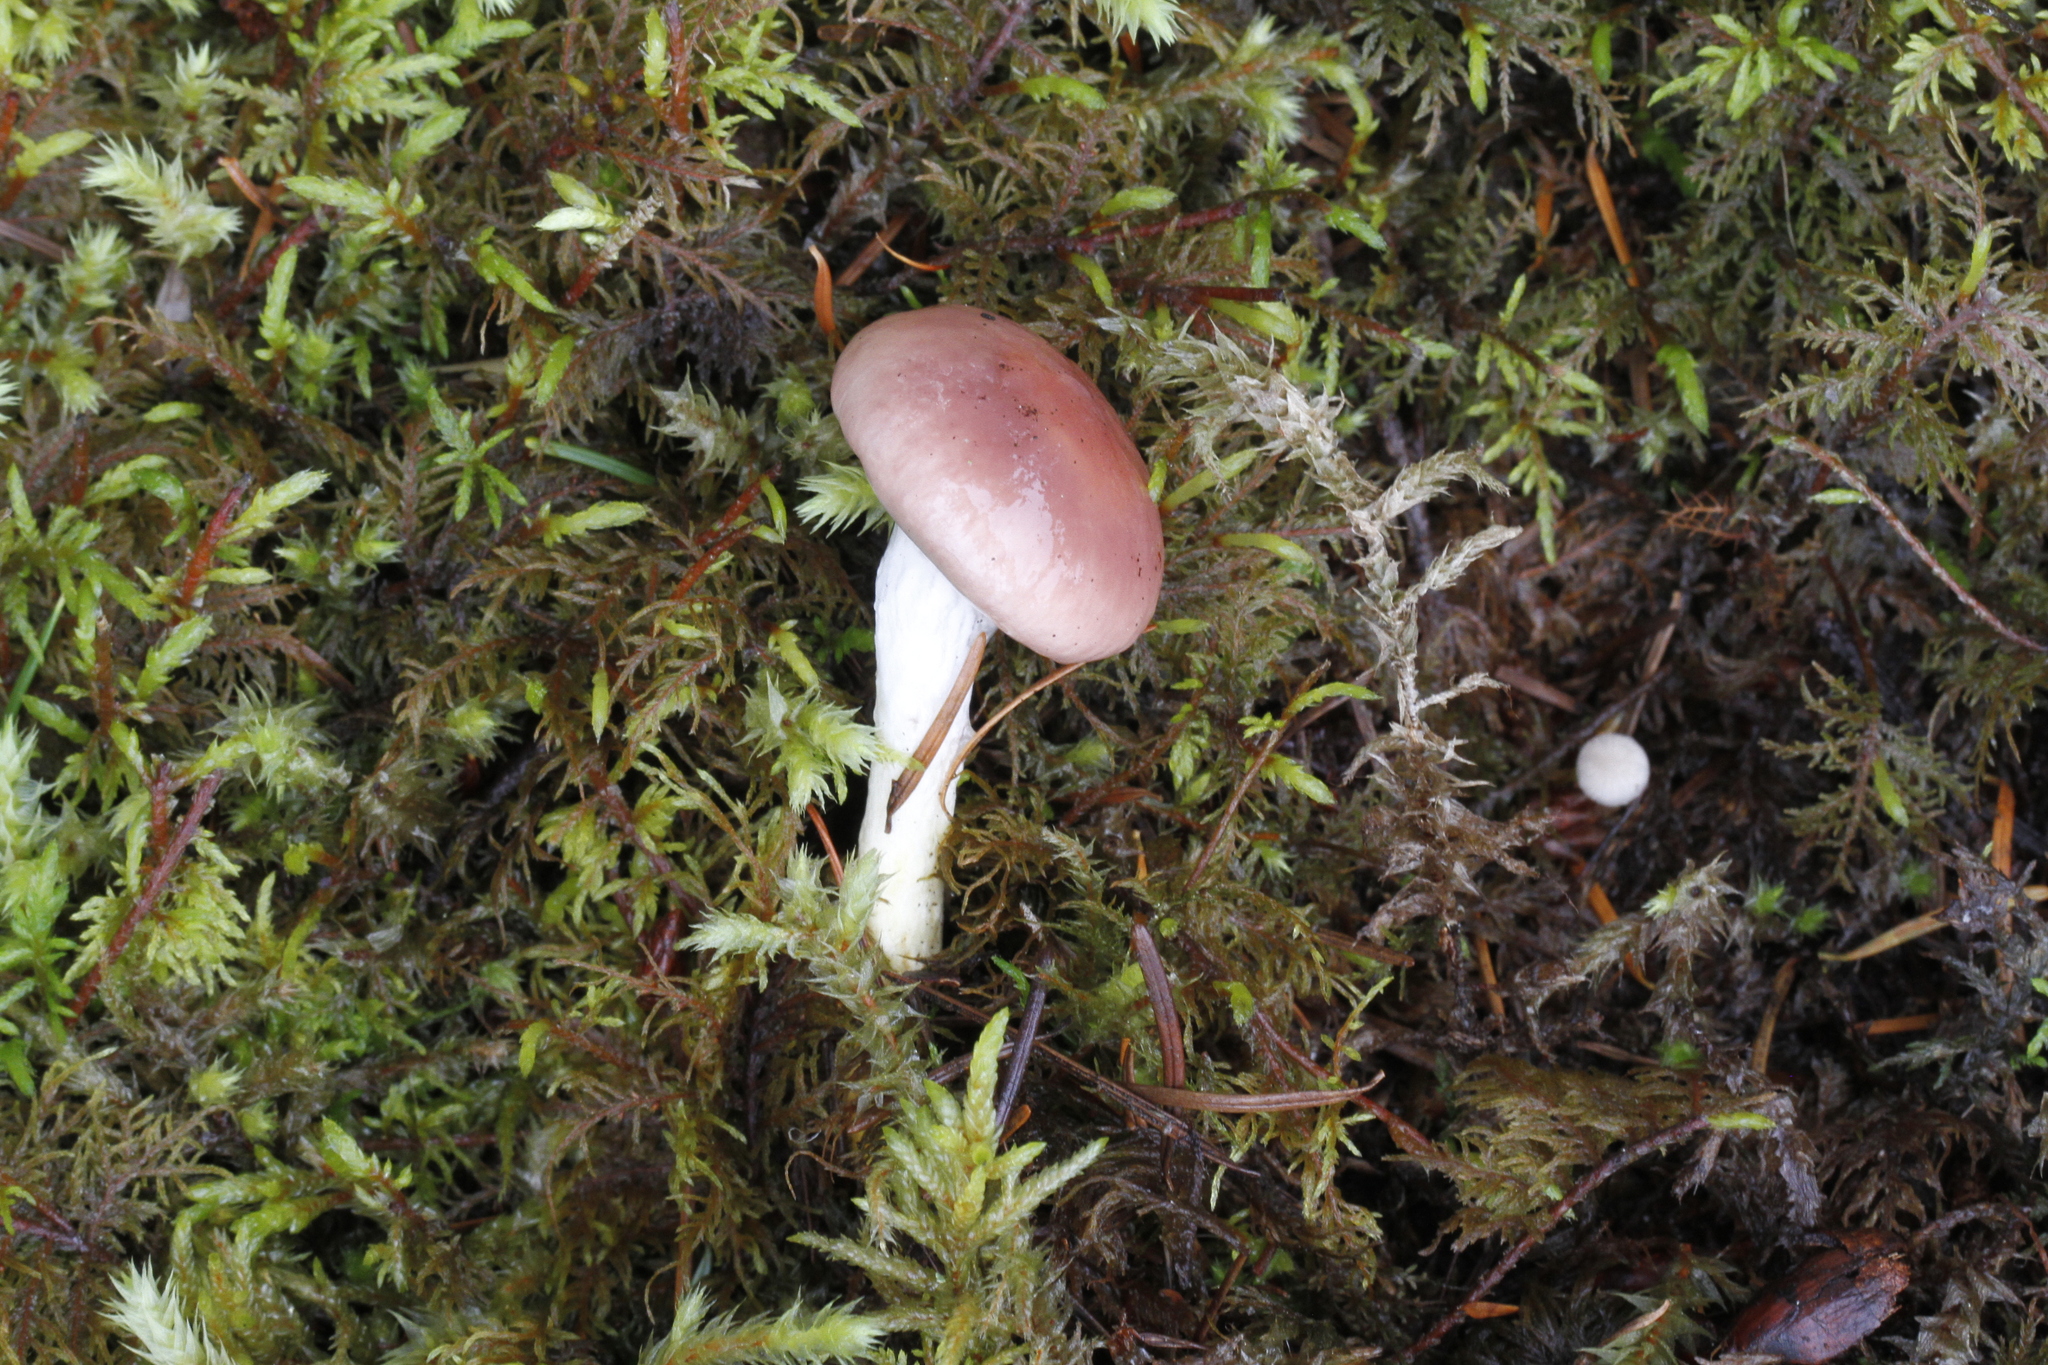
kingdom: Fungi
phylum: Basidiomycota
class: Agaricomycetes
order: Boletales
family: Gomphidiaceae
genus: Gomphidius
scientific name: Gomphidius subroseus
